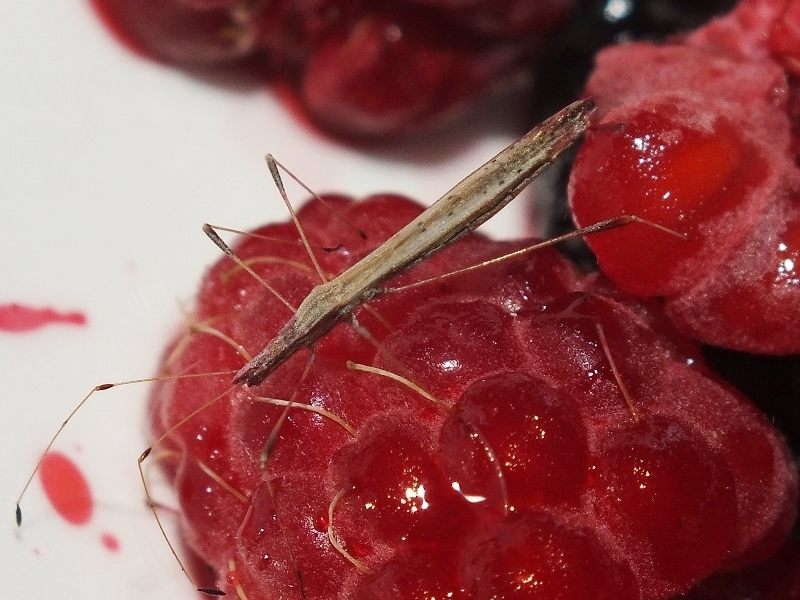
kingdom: Animalia
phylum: Arthropoda
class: Insecta
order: Hemiptera
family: Berytidae
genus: Neides
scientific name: Neides tipularius
